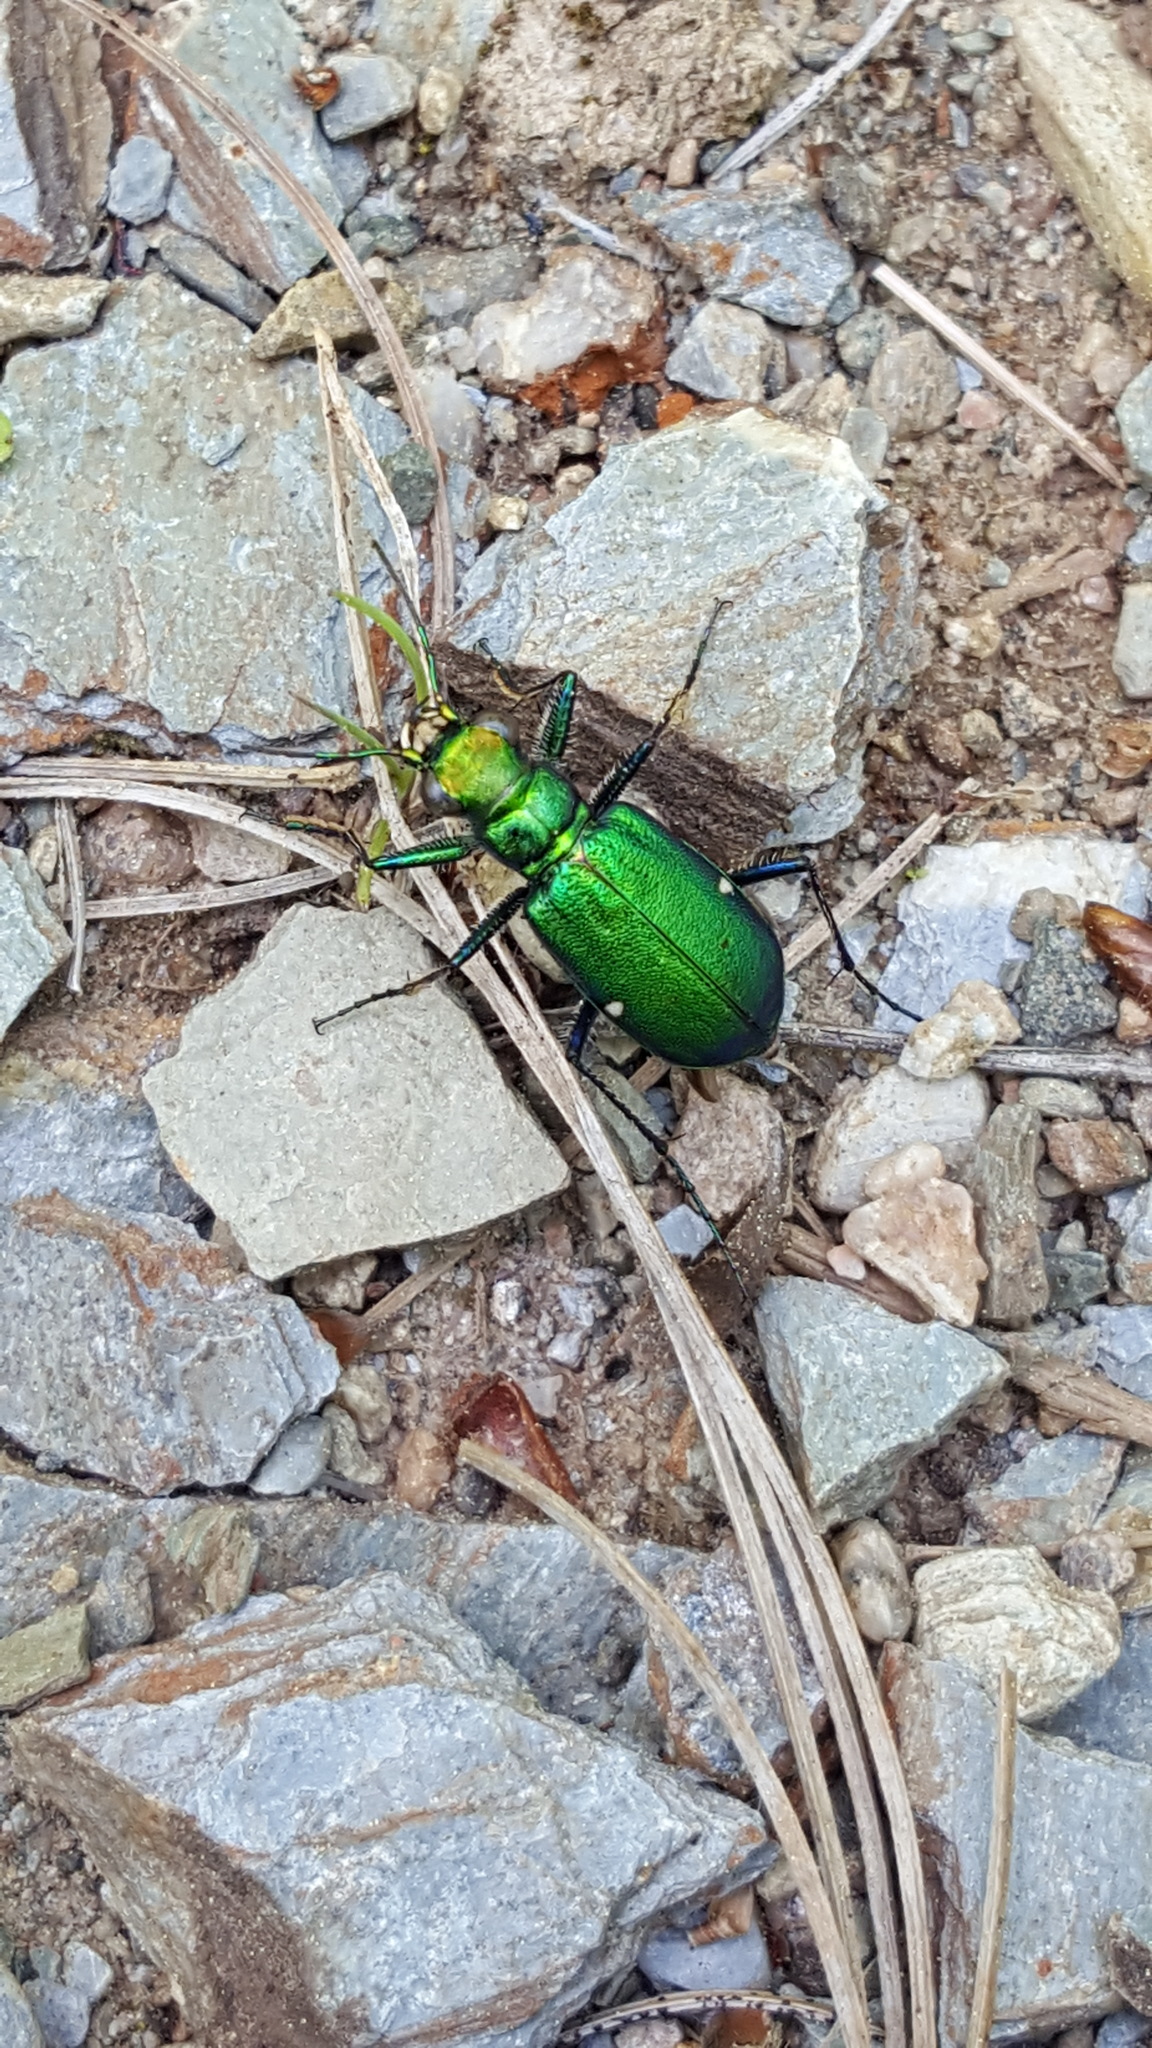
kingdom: Animalia
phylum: Arthropoda
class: Insecta
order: Coleoptera
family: Carabidae
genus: Cicindela
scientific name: Cicindela denikei
